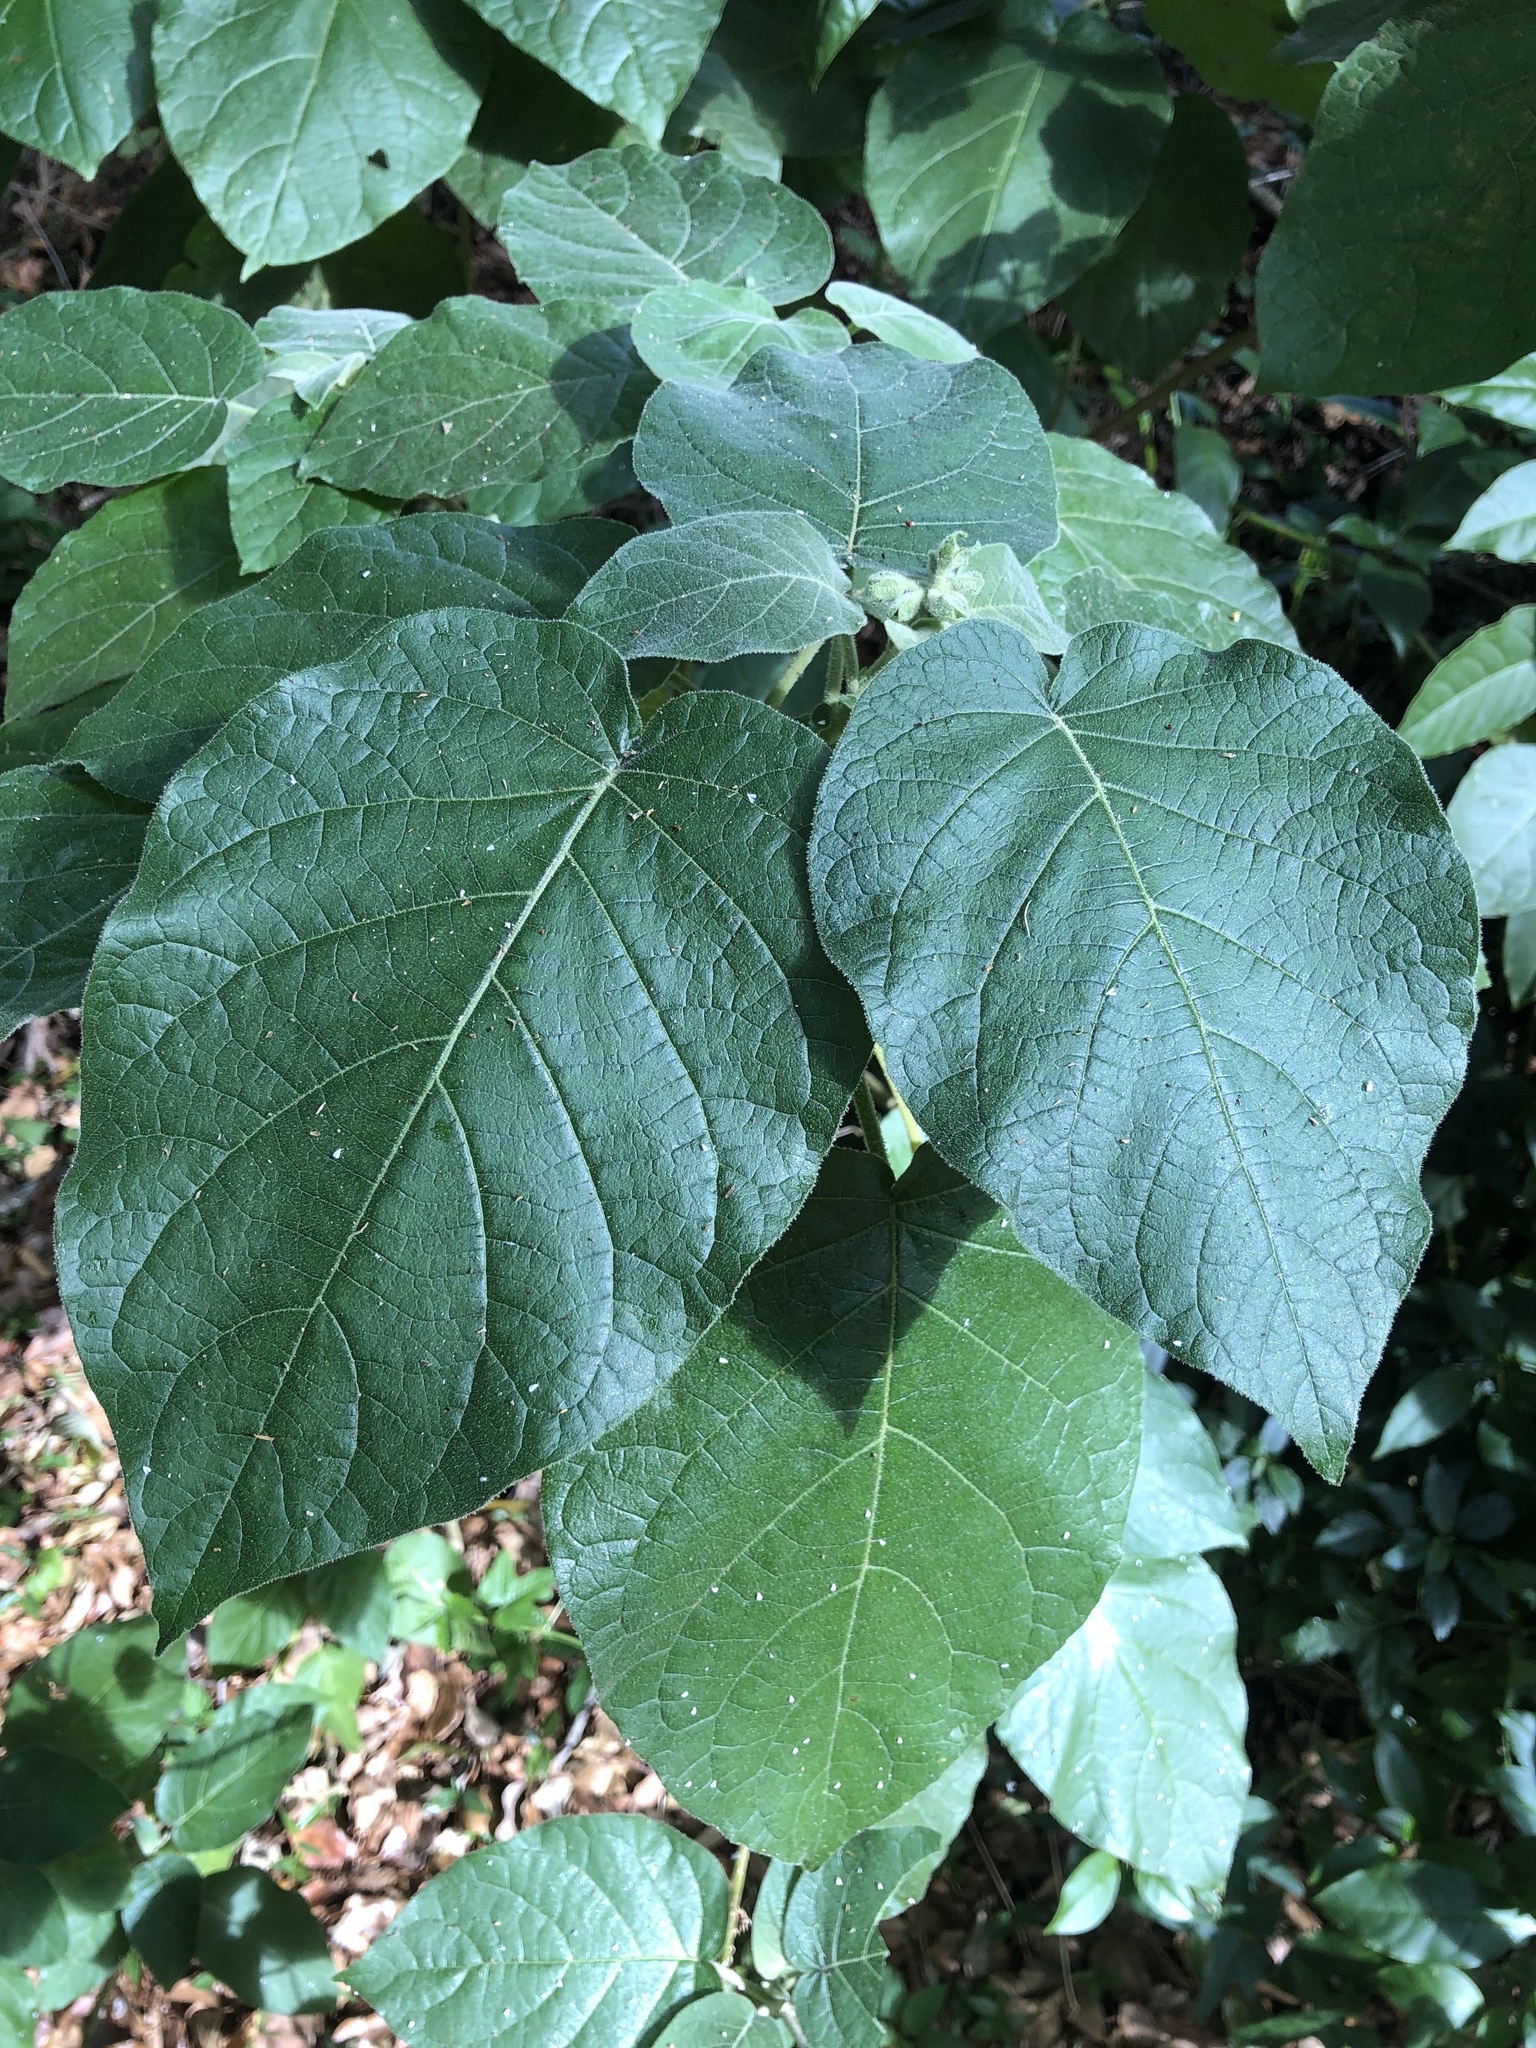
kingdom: Plantae
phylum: Tracheophyta
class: Magnoliopsida
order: Solanales
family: Solanaceae
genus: Solanum
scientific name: Solanum abutiloides
